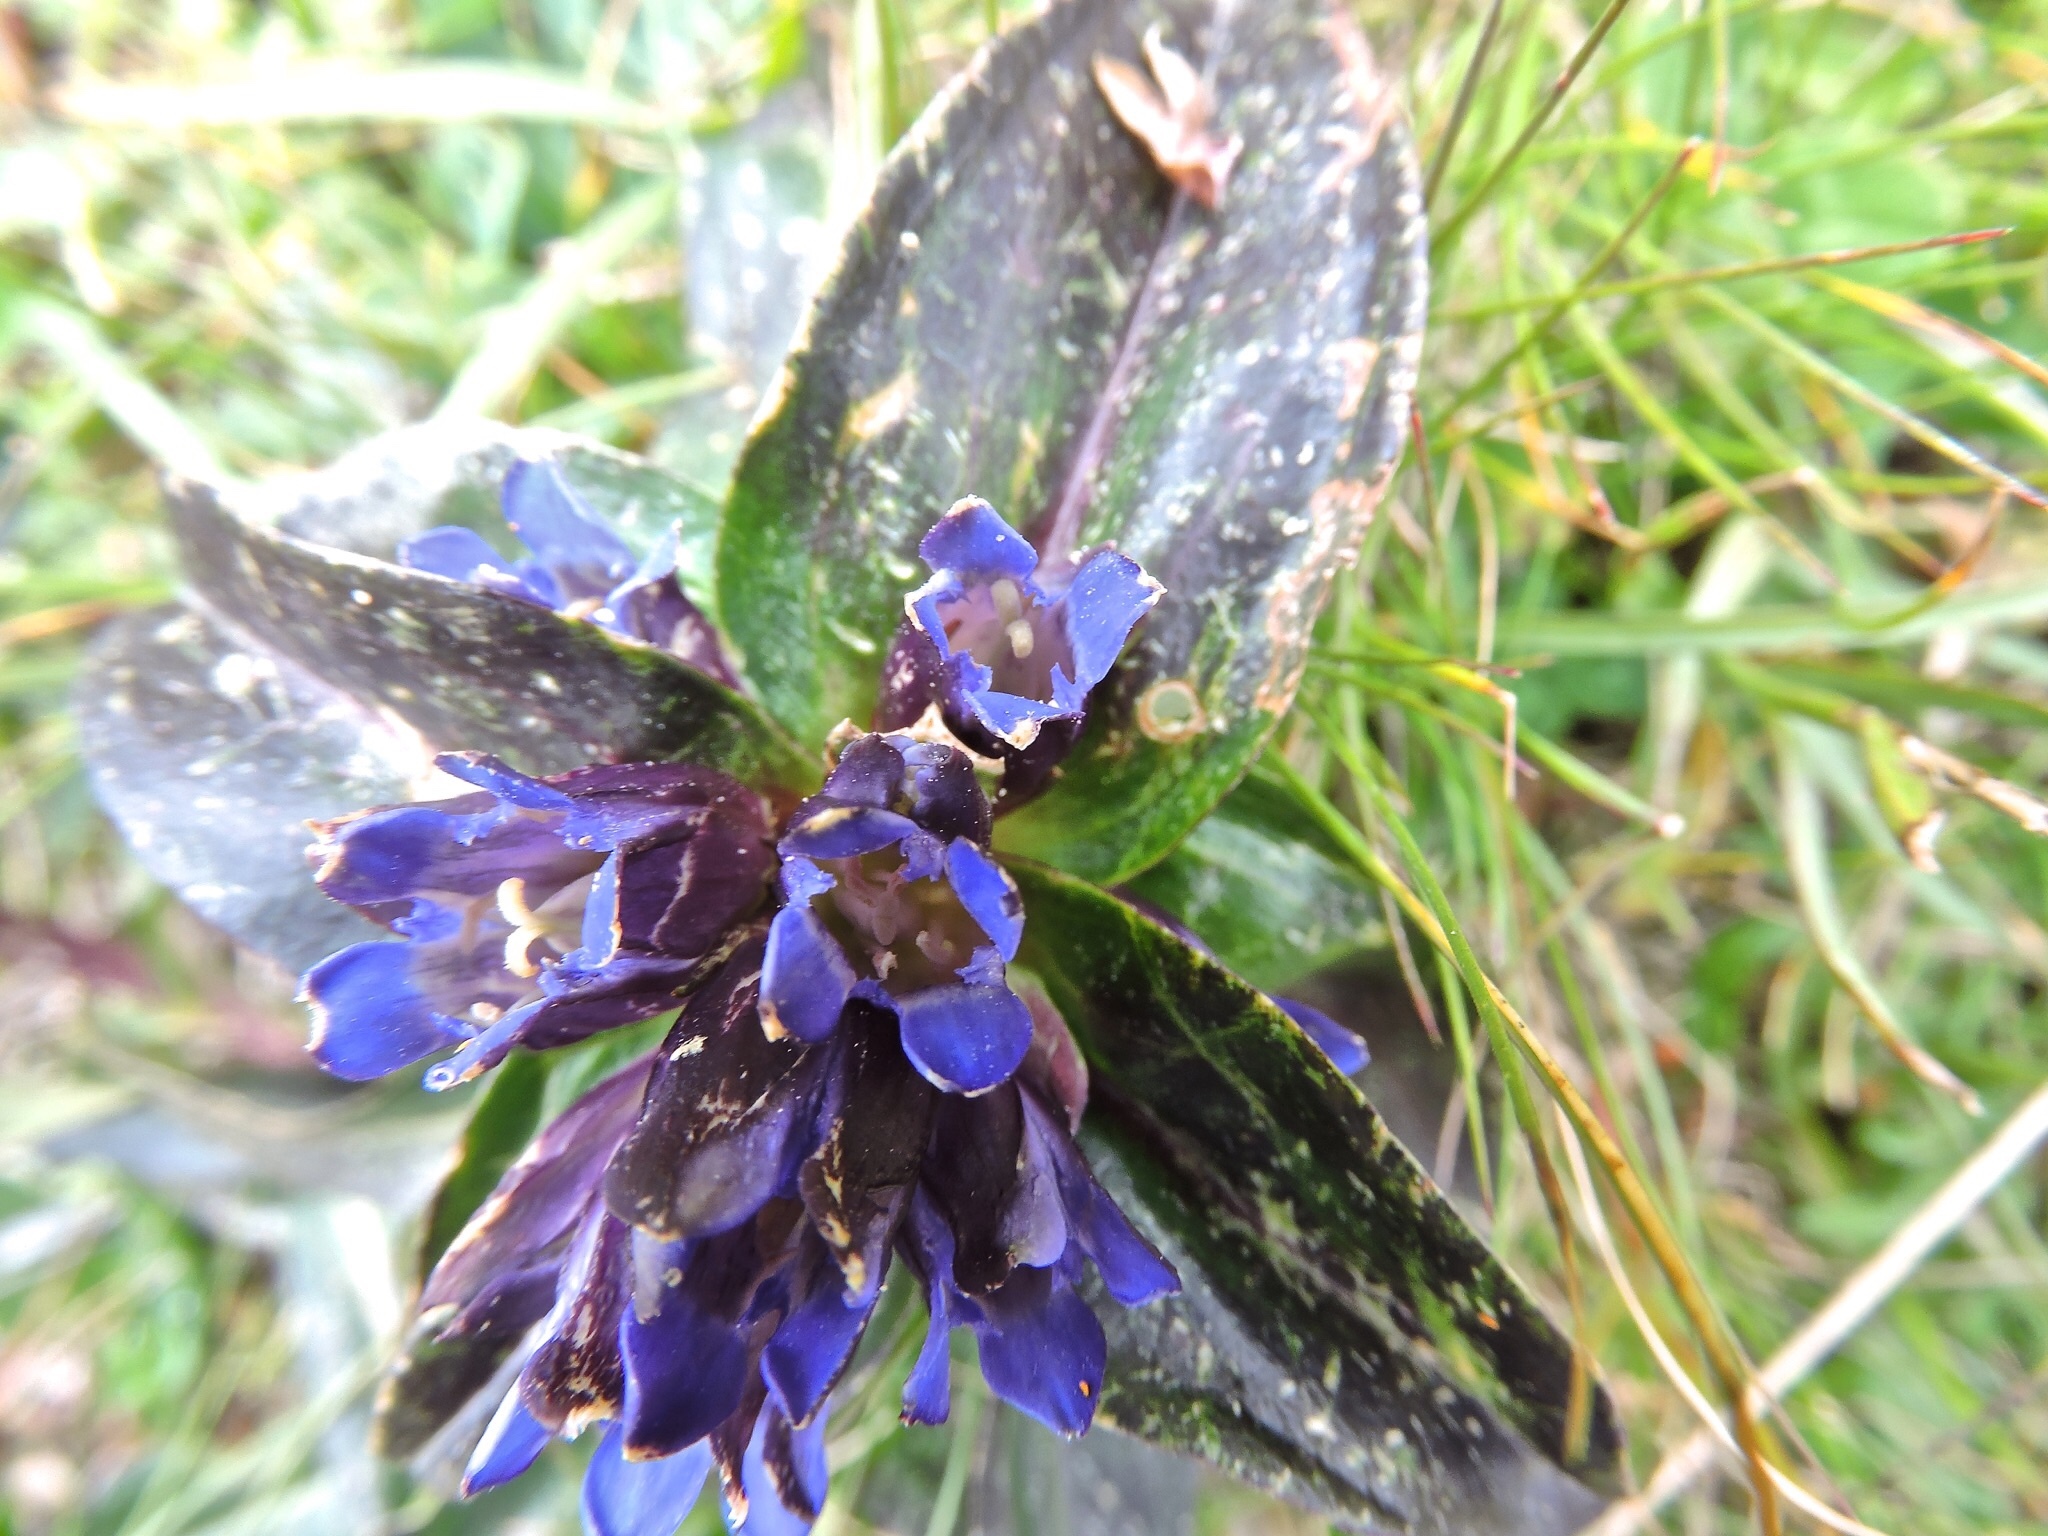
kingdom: Plantae
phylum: Tracheophyta
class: Magnoliopsida
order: Gentianales
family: Gentianaceae
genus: Gentiana
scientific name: Gentiana cruciata
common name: Cross gentian
